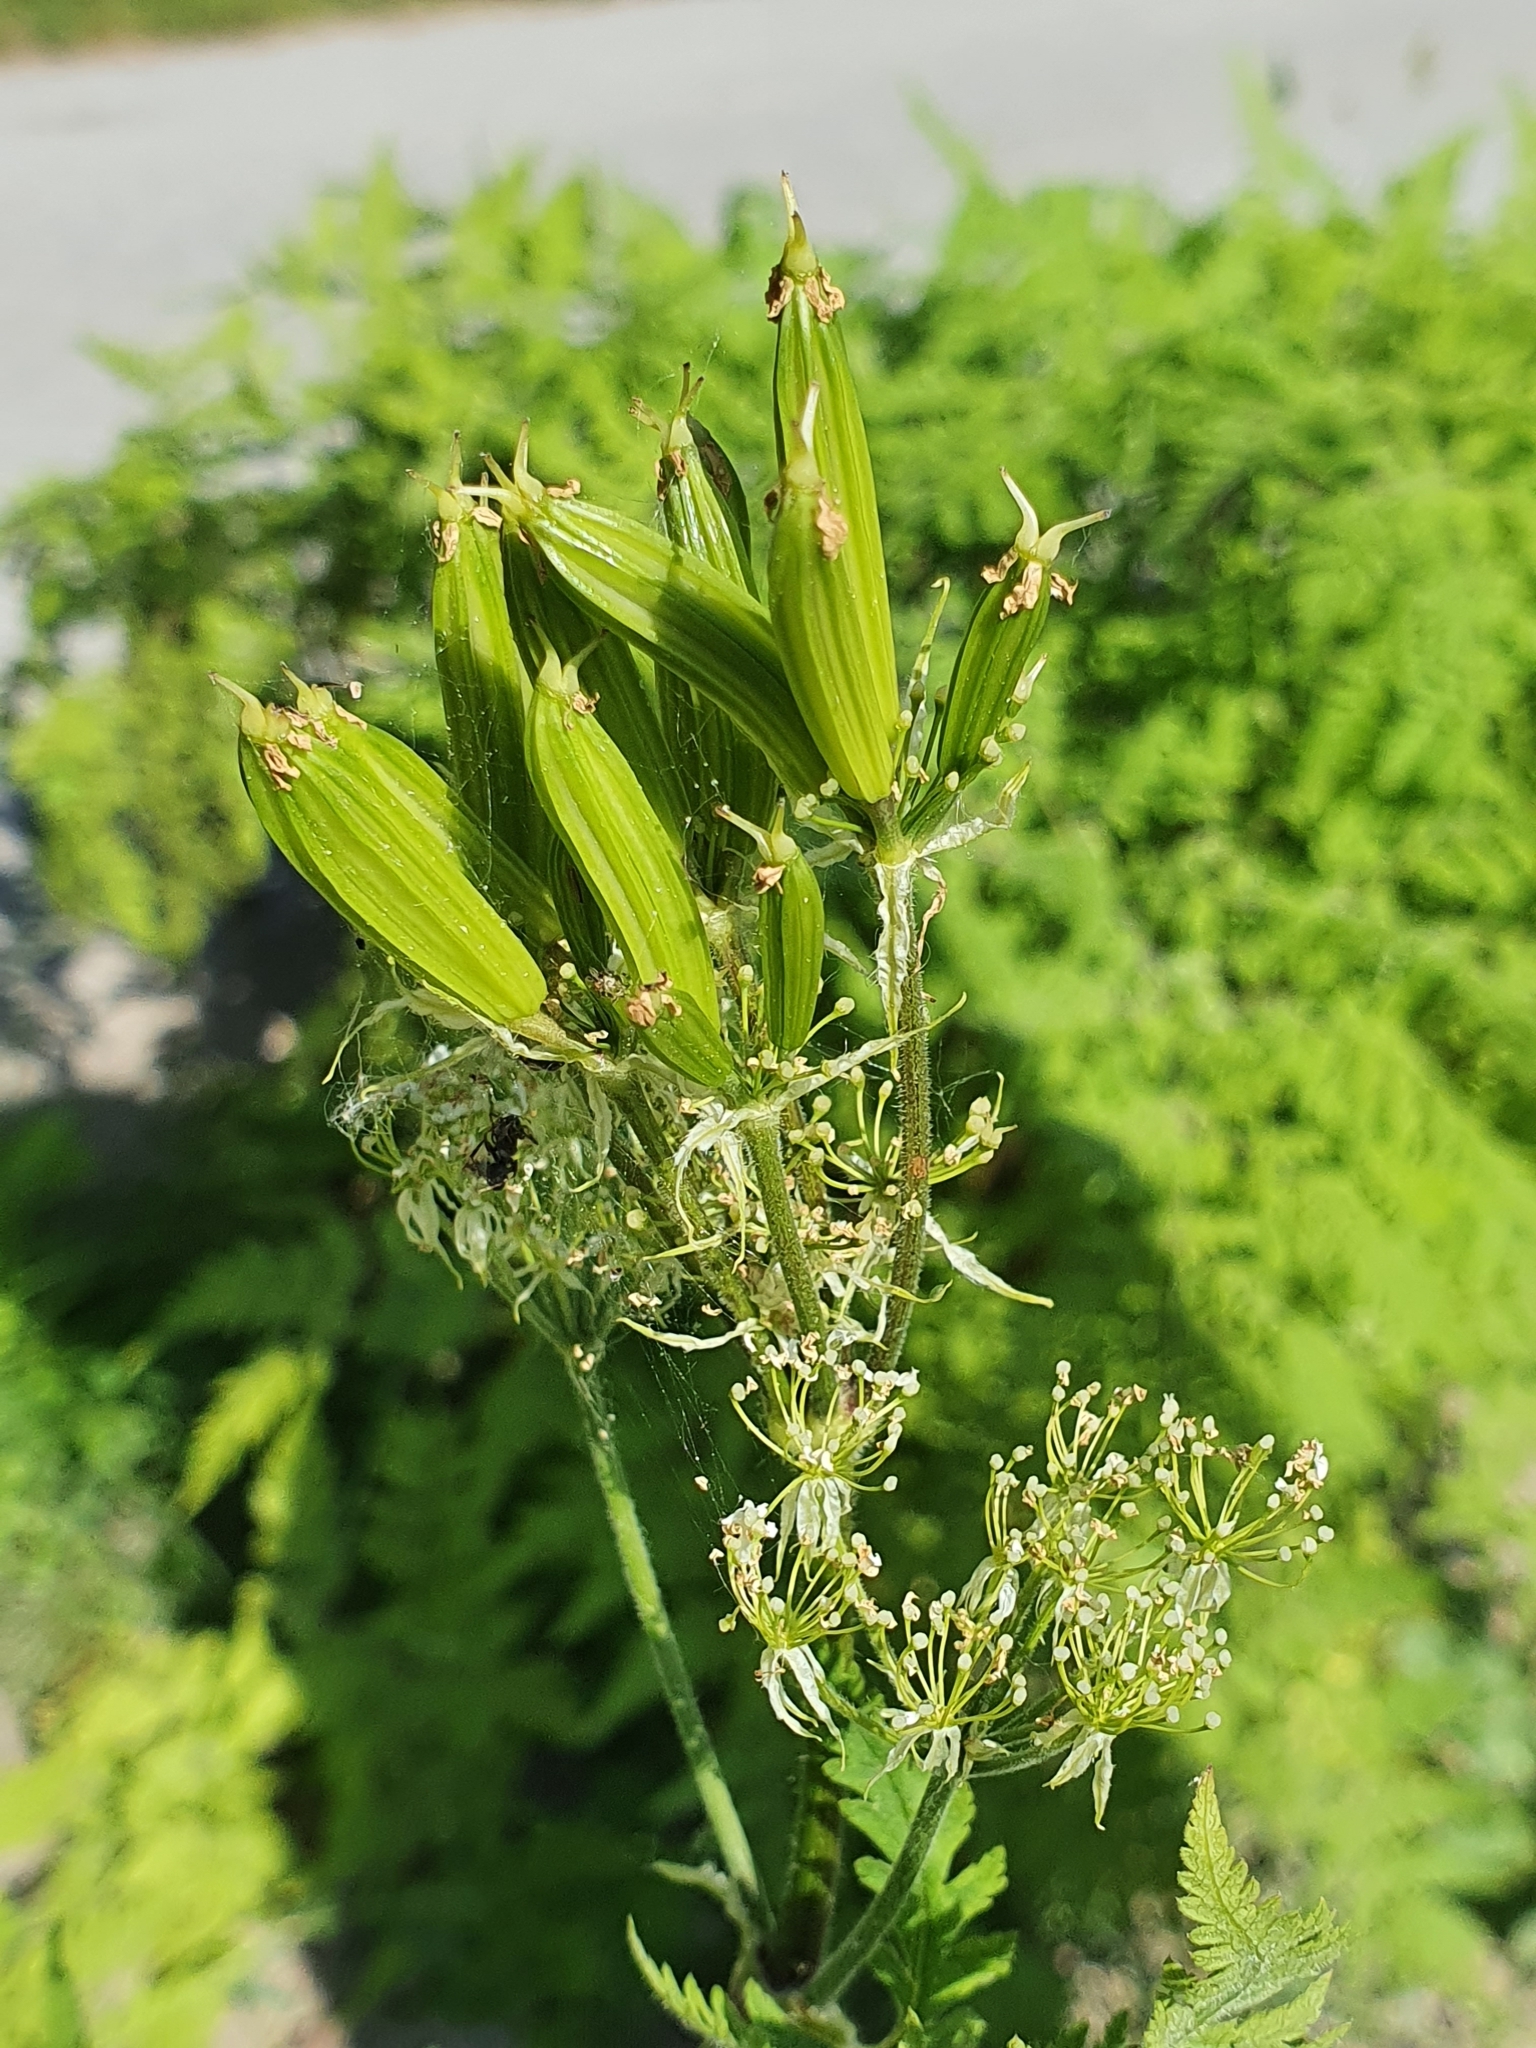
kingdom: Plantae
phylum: Tracheophyta
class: Magnoliopsida
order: Apiales
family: Apiaceae
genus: Myrrhis
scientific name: Myrrhis odorata
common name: Sweet cicely
